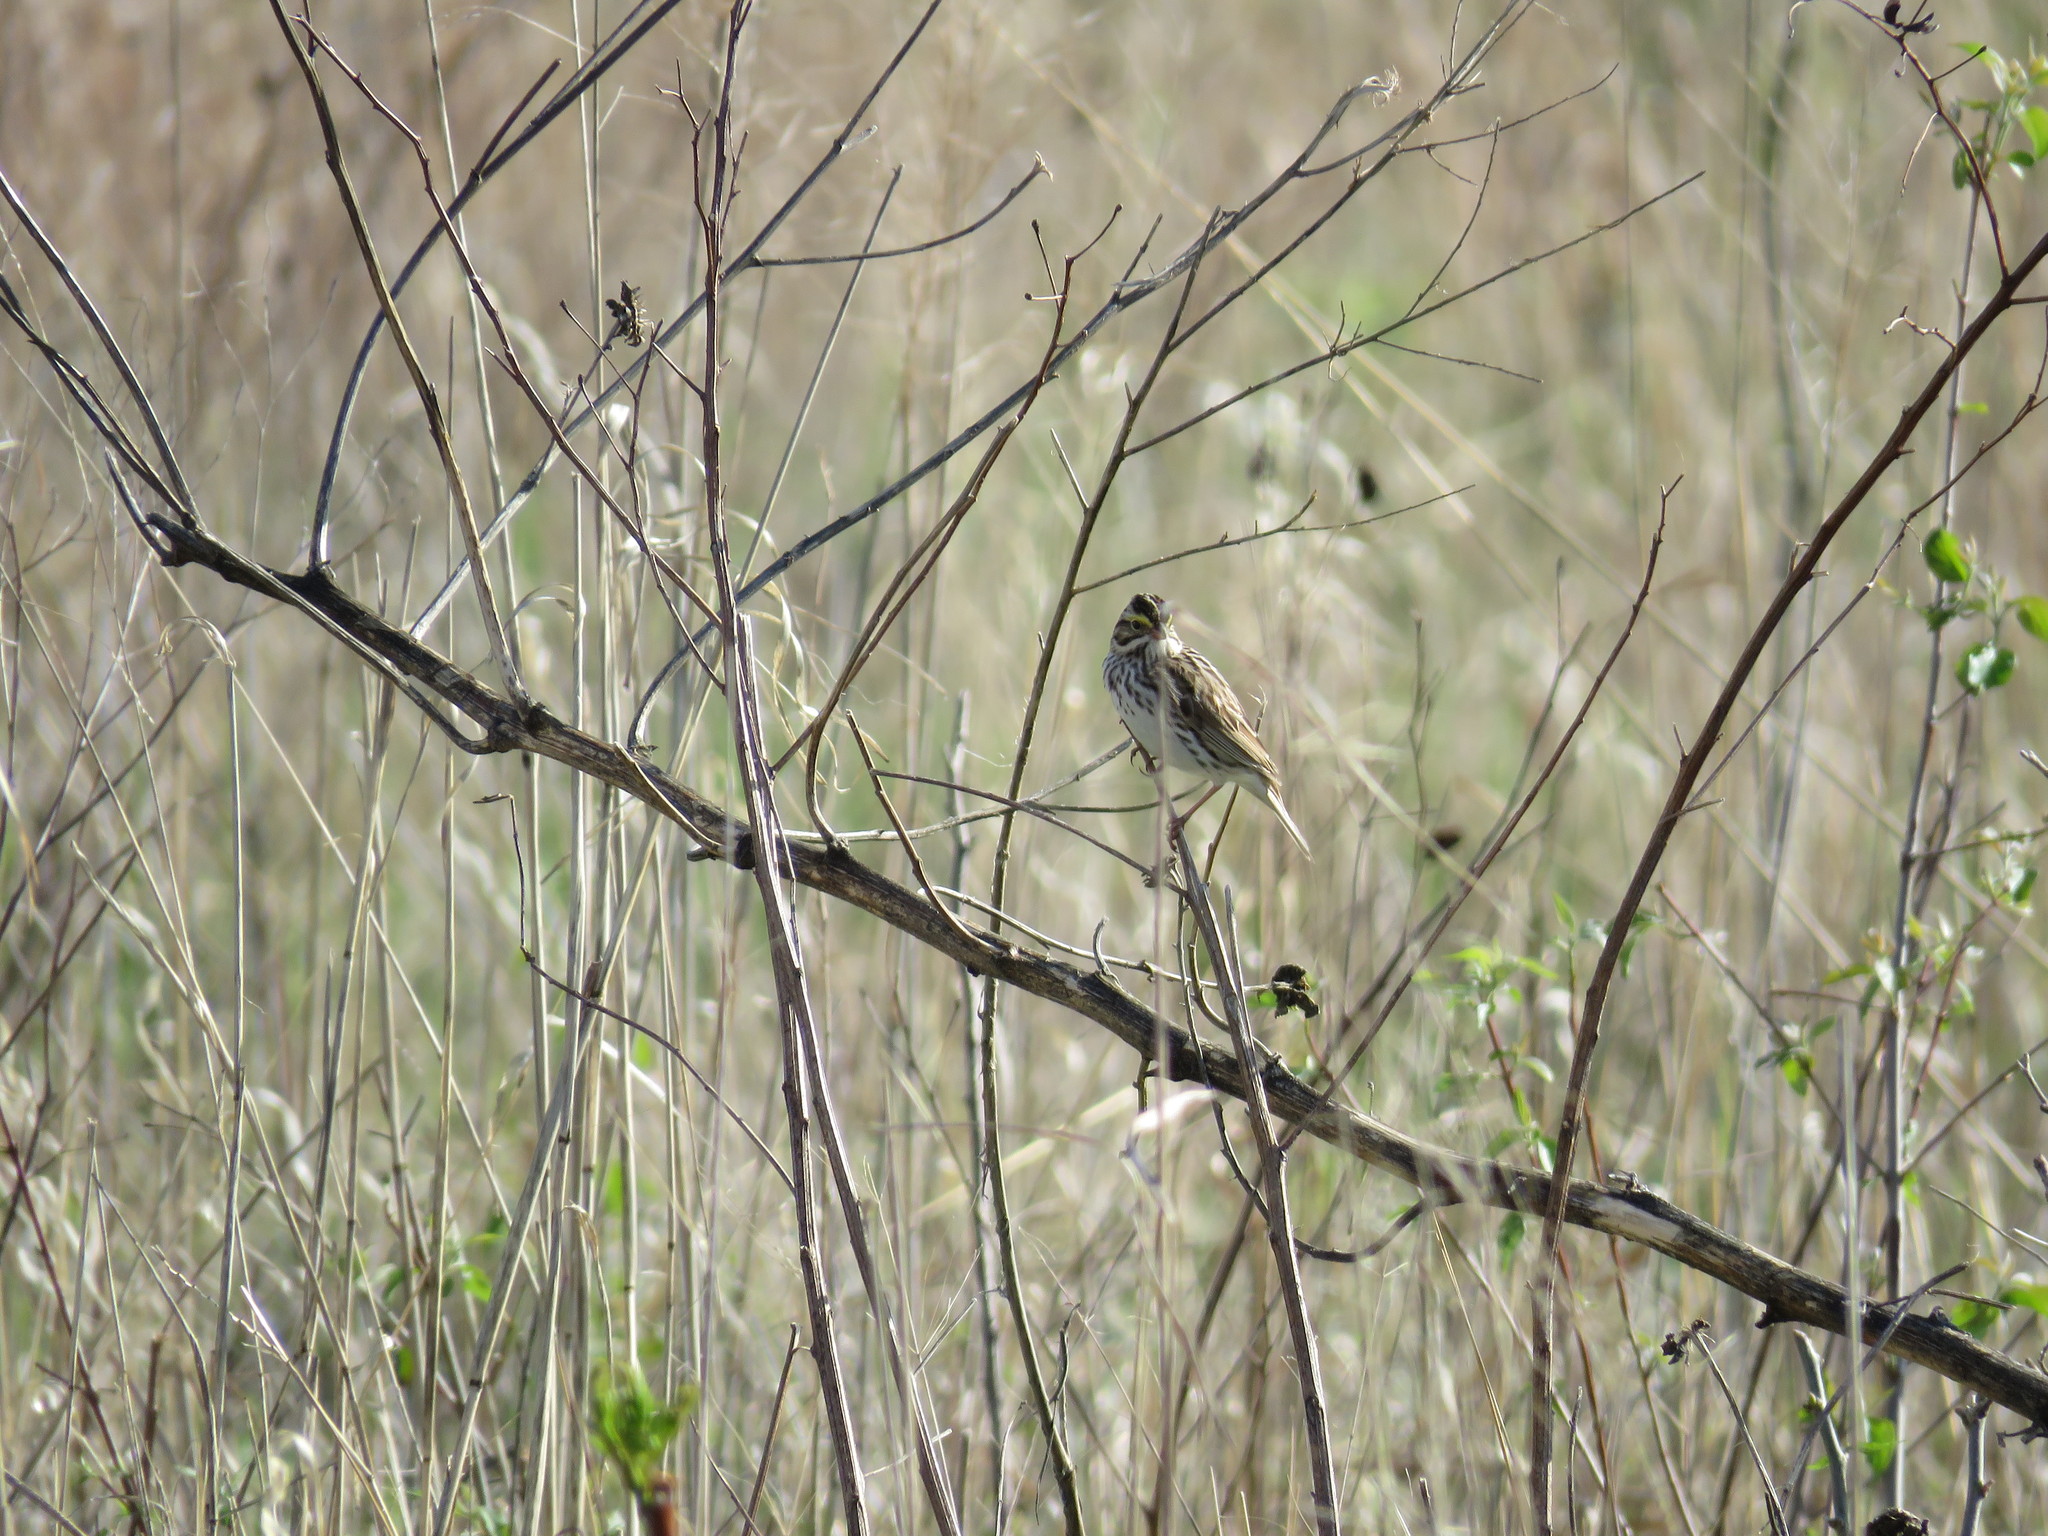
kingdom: Animalia
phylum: Chordata
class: Aves
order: Passeriformes
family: Passerellidae
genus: Passerculus
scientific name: Passerculus sandwichensis
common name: Savannah sparrow
